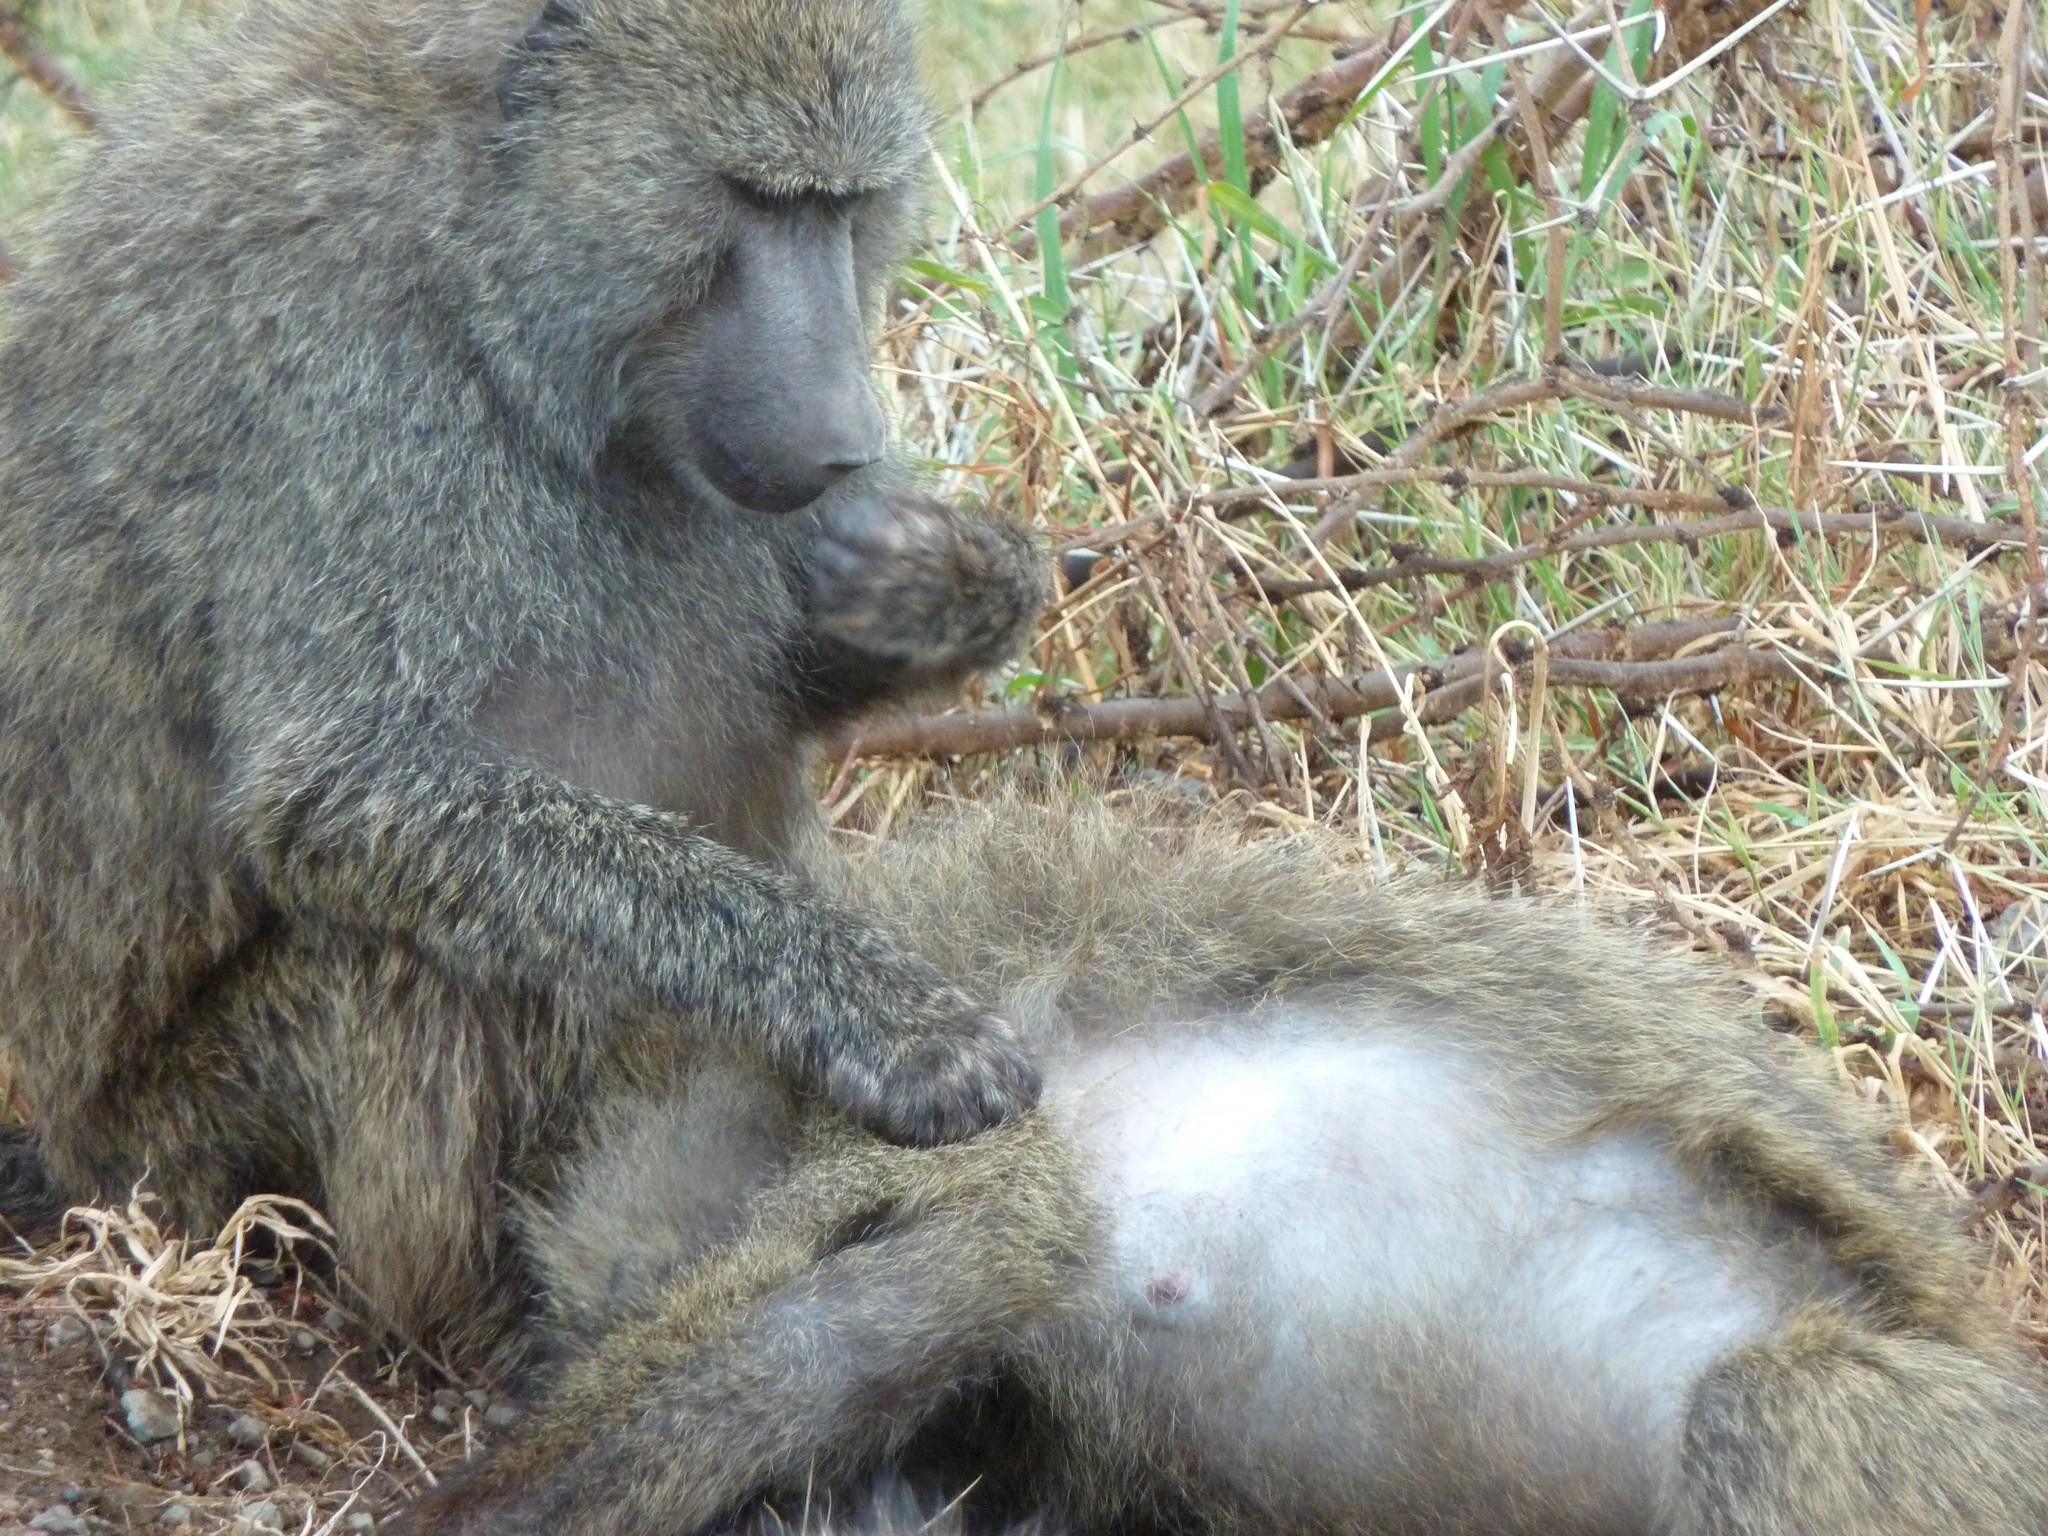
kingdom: Animalia
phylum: Chordata
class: Mammalia
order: Primates
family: Cercopithecidae
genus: Papio
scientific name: Papio anubis
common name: Olive baboon
